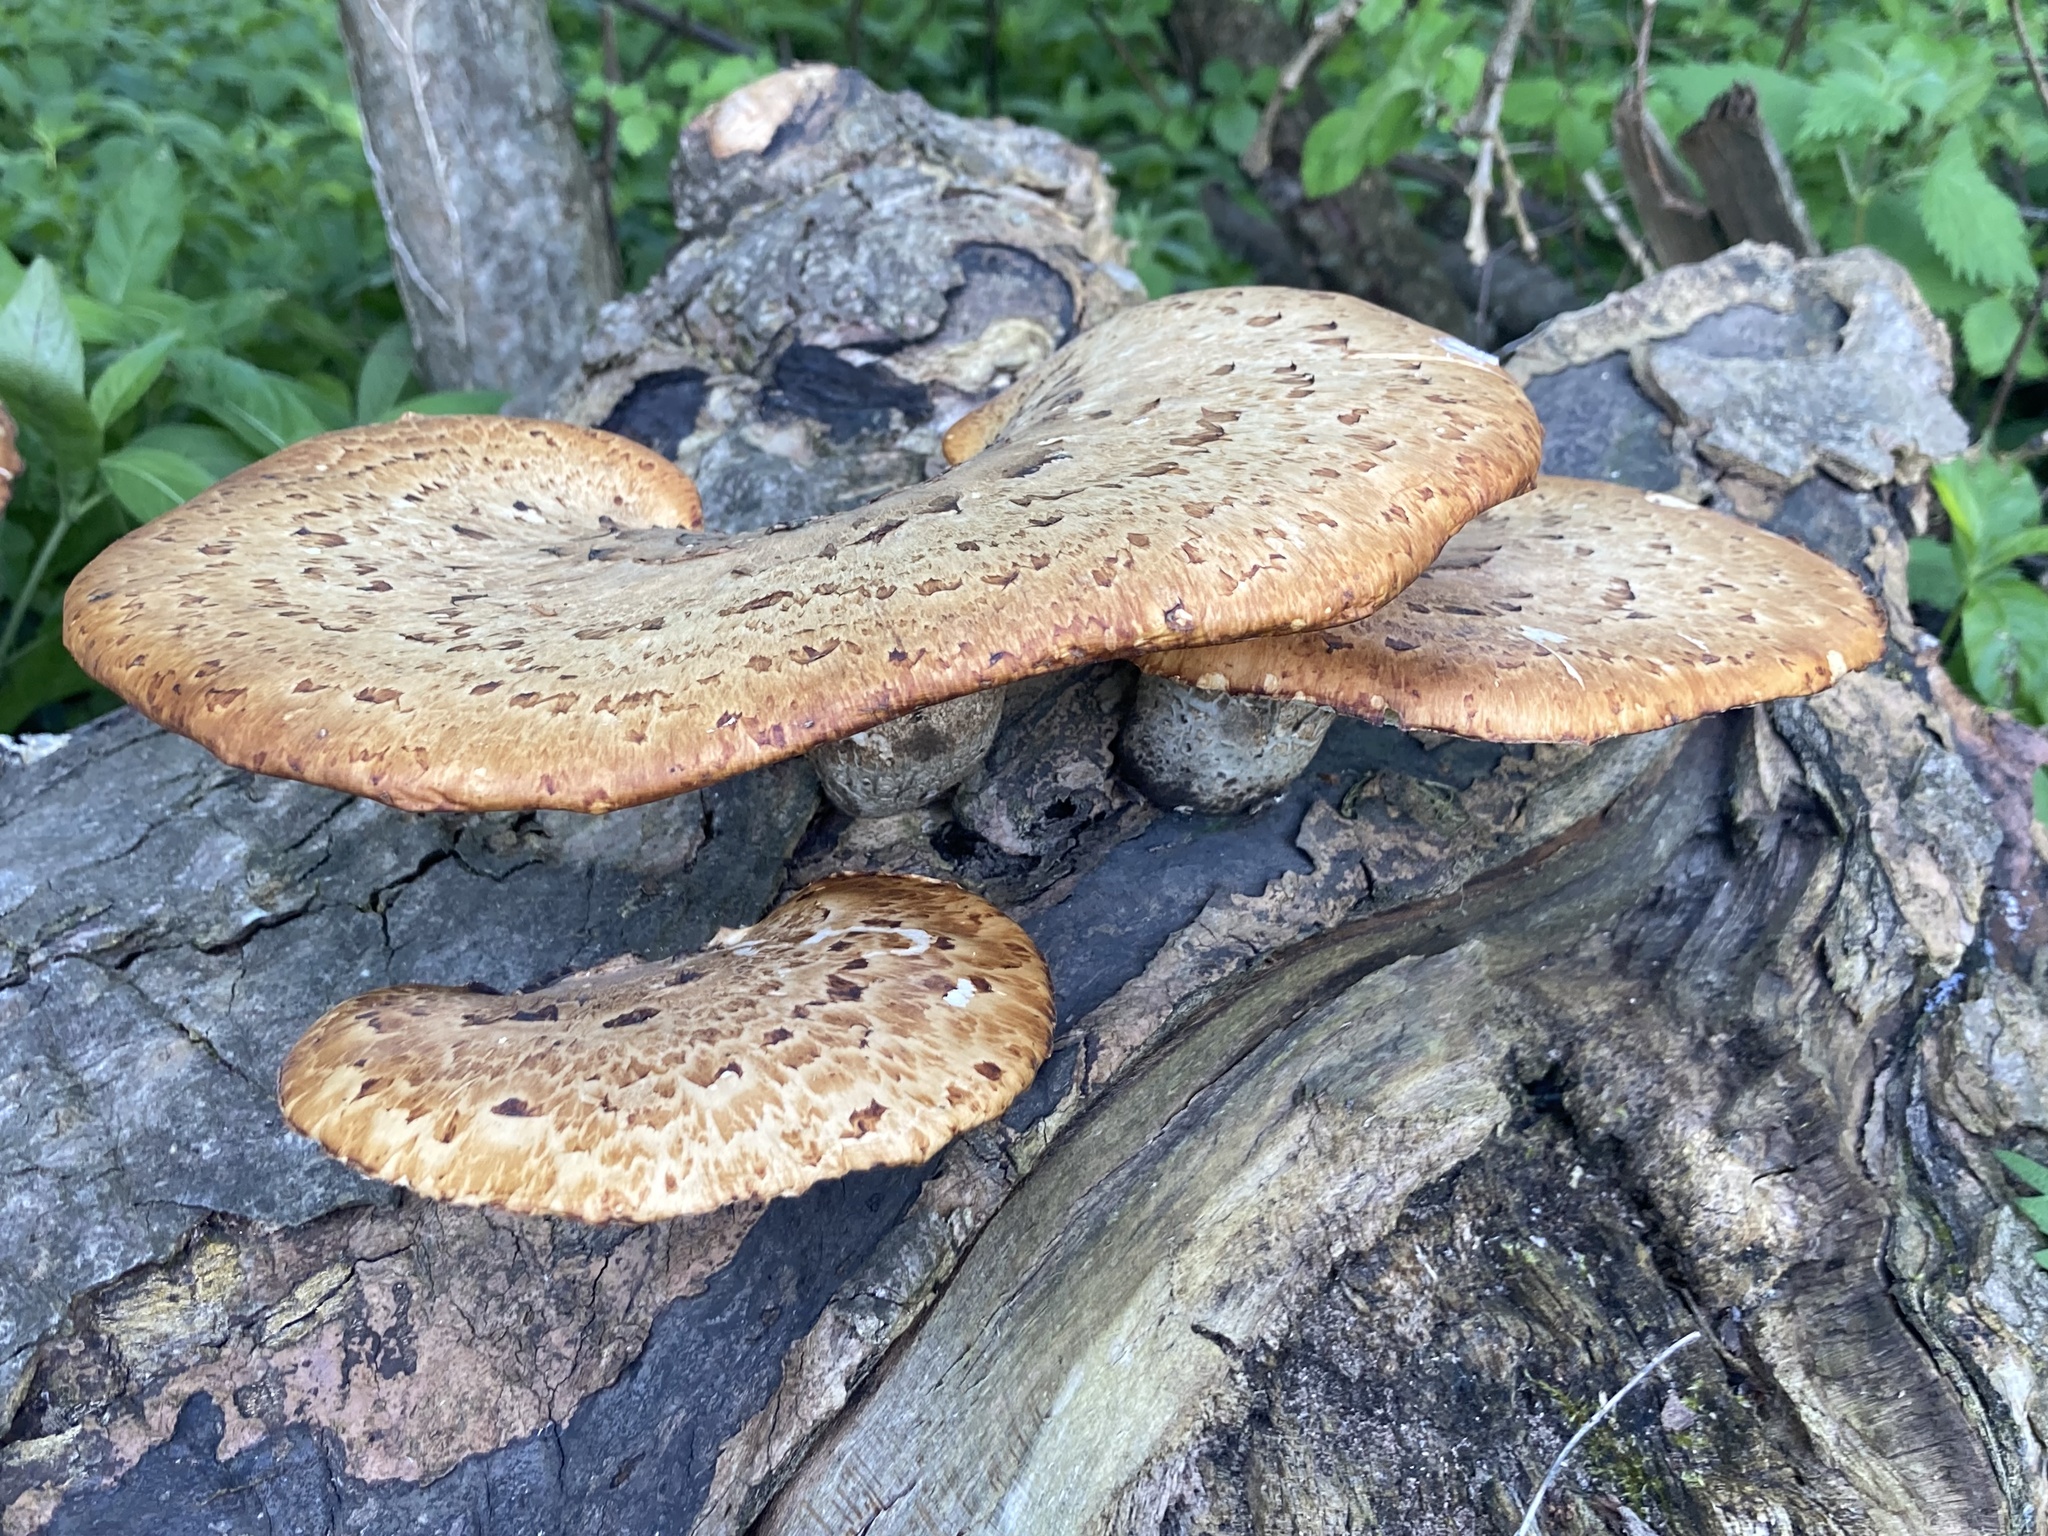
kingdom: Fungi
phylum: Basidiomycota
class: Agaricomycetes
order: Polyporales
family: Polyporaceae
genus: Cerioporus
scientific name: Cerioporus squamosus
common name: Dryad's saddle
